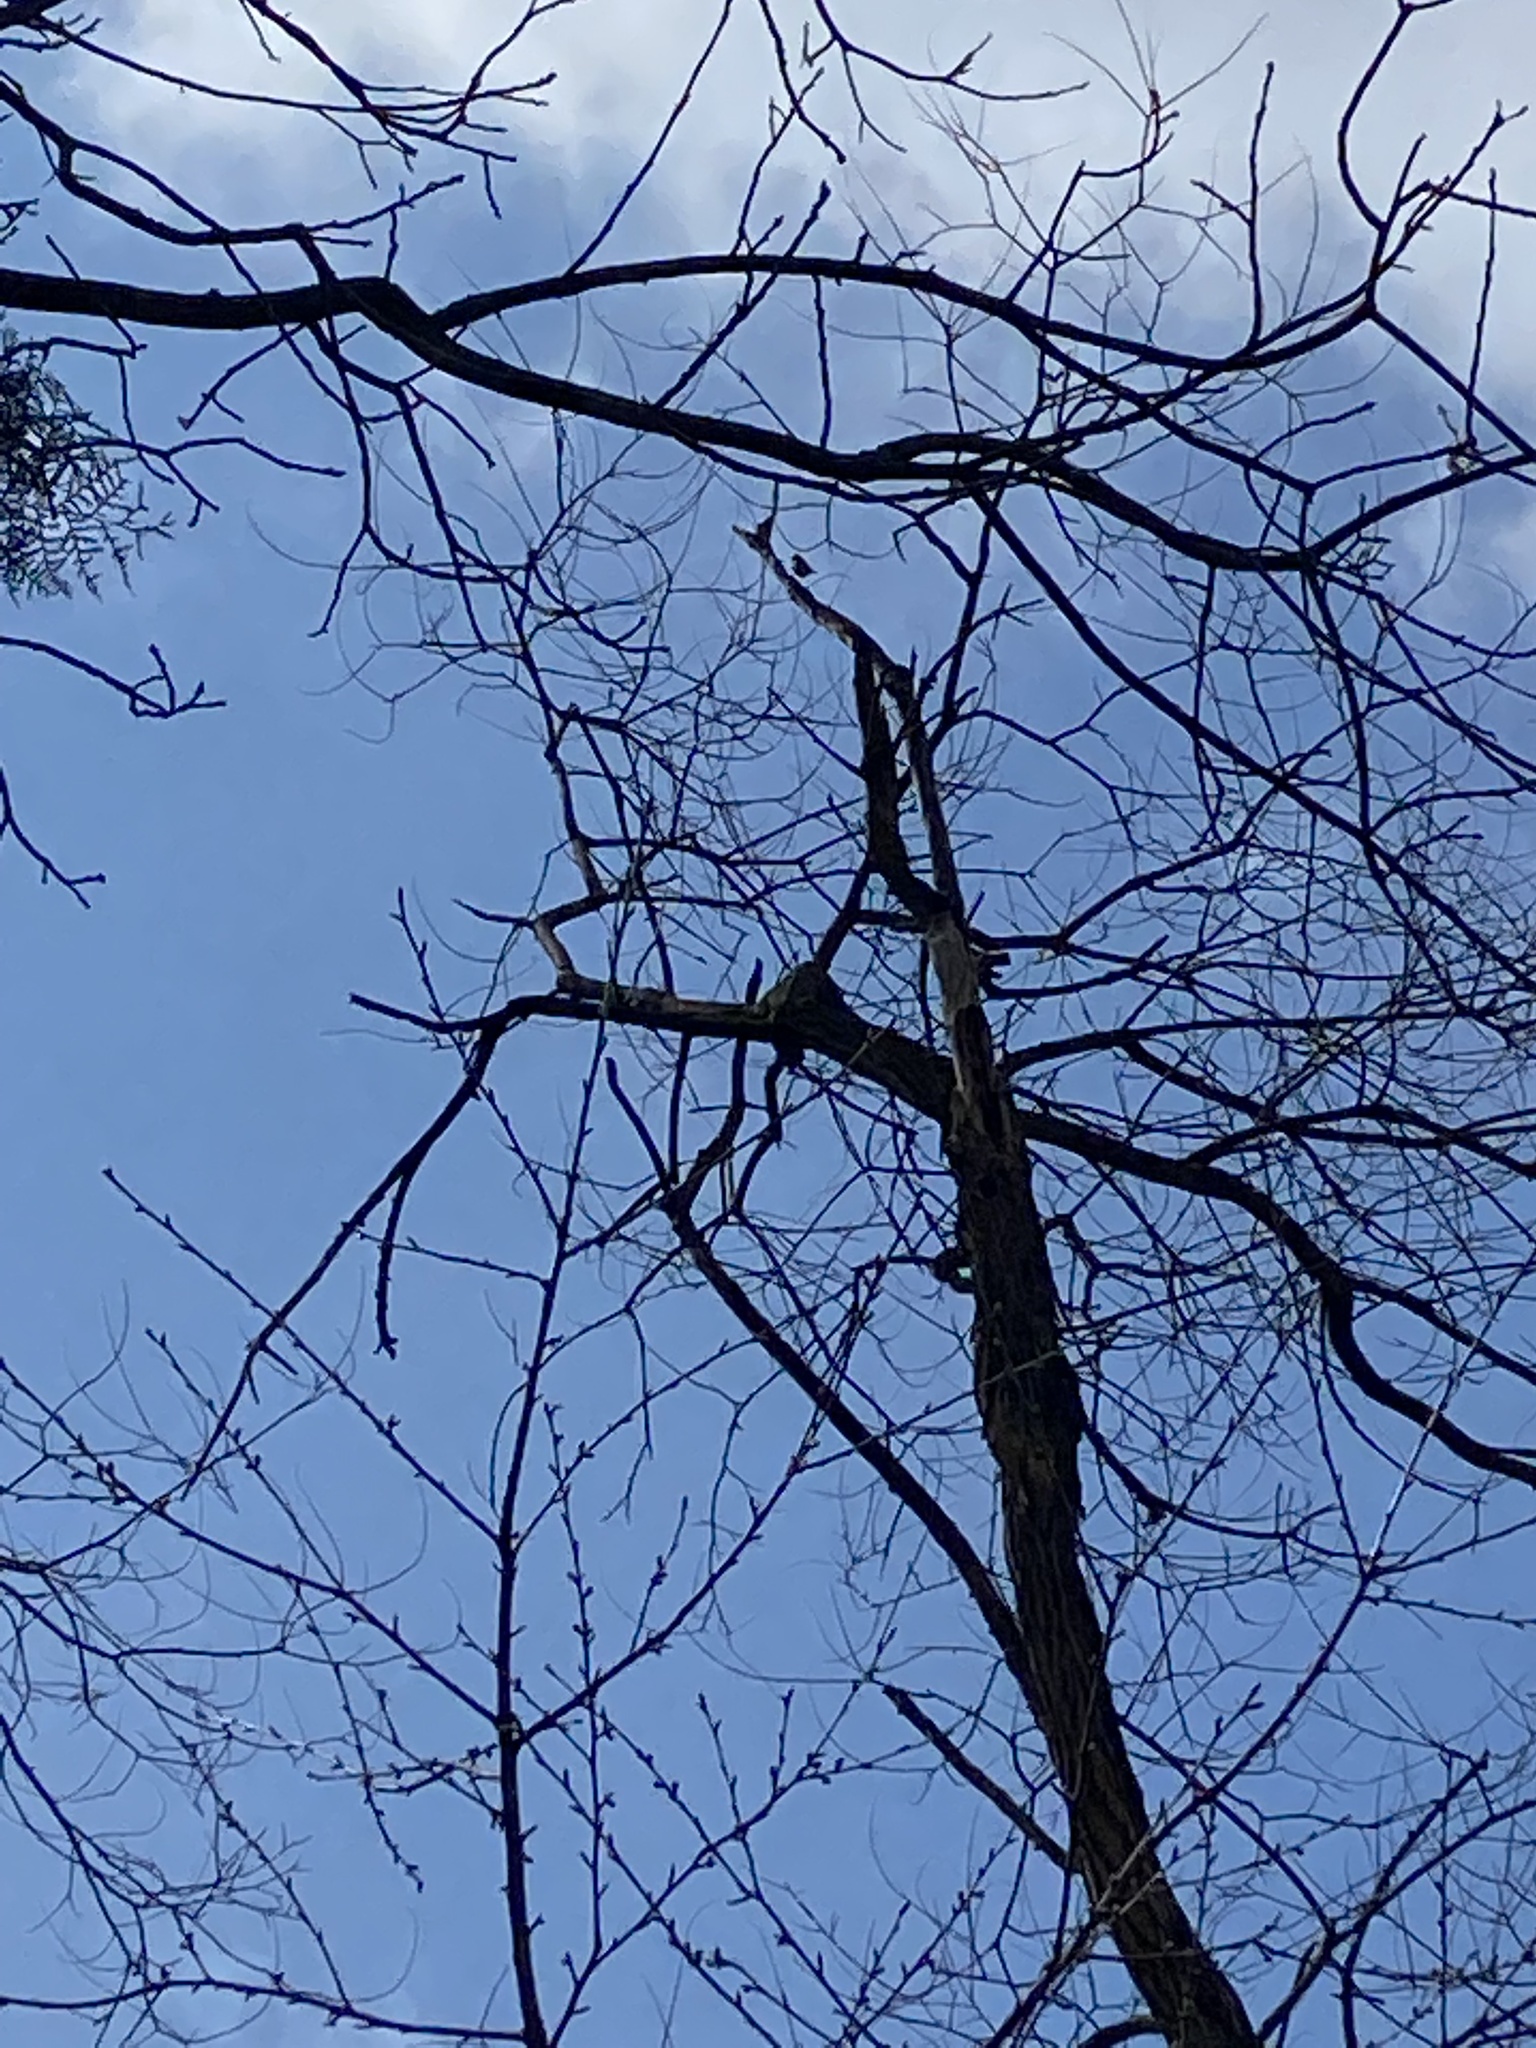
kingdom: Animalia
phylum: Chordata
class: Aves
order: Passeriformes
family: Paridae
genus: Cyanistes
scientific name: Cyanistes caeruleus
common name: Eurasian blue tit
